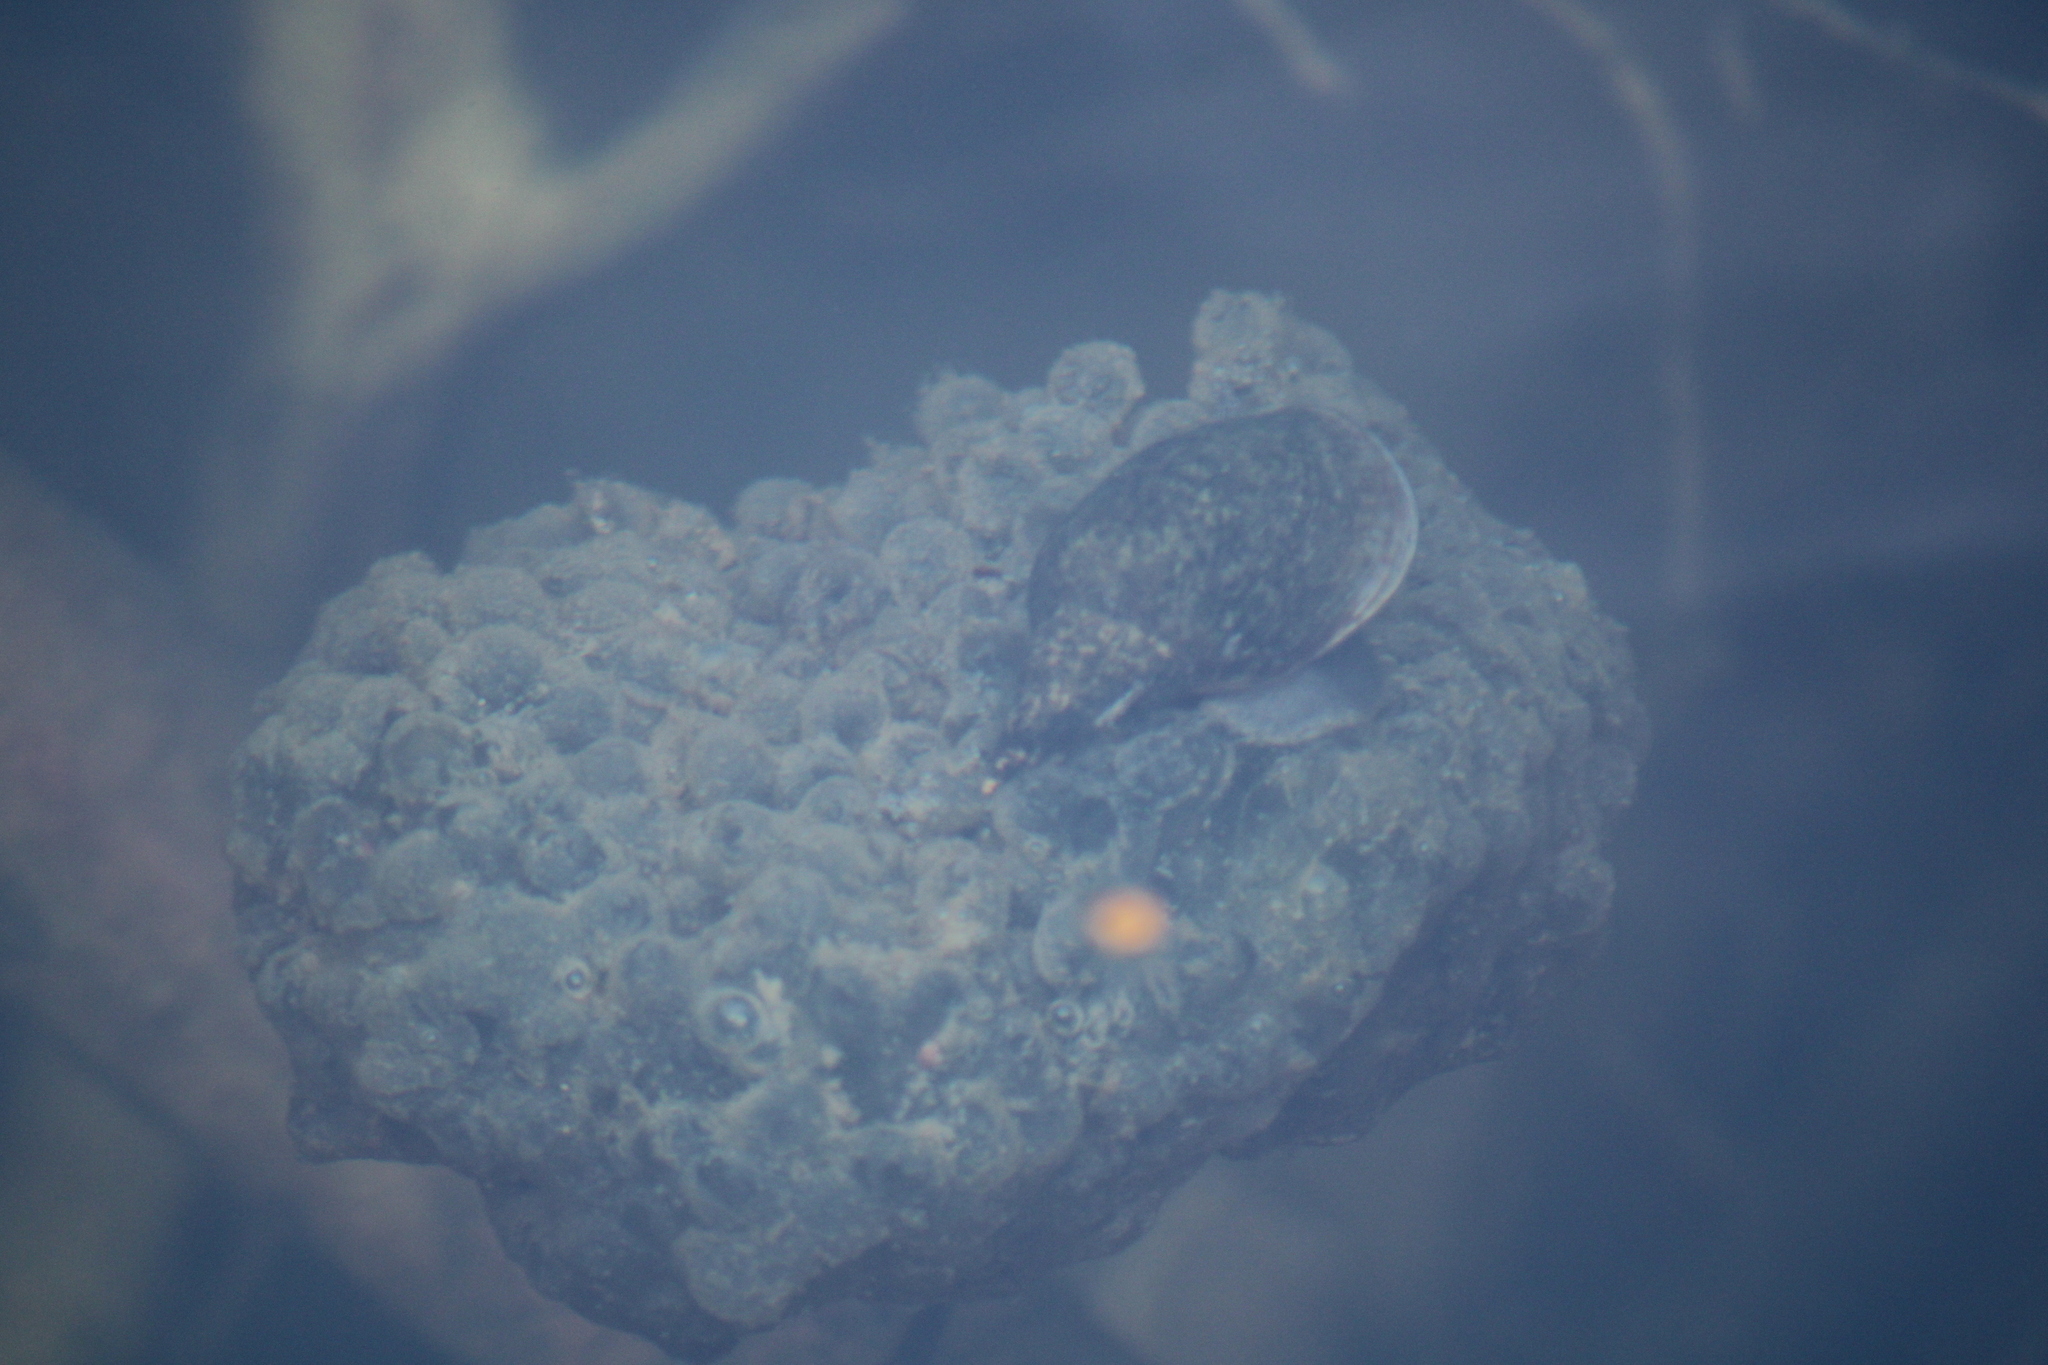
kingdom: Animalia
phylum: Chordata
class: Amphibia
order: Anura
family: Ranidae
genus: Rana
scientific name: Rana dalmatina
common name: Agile frog
